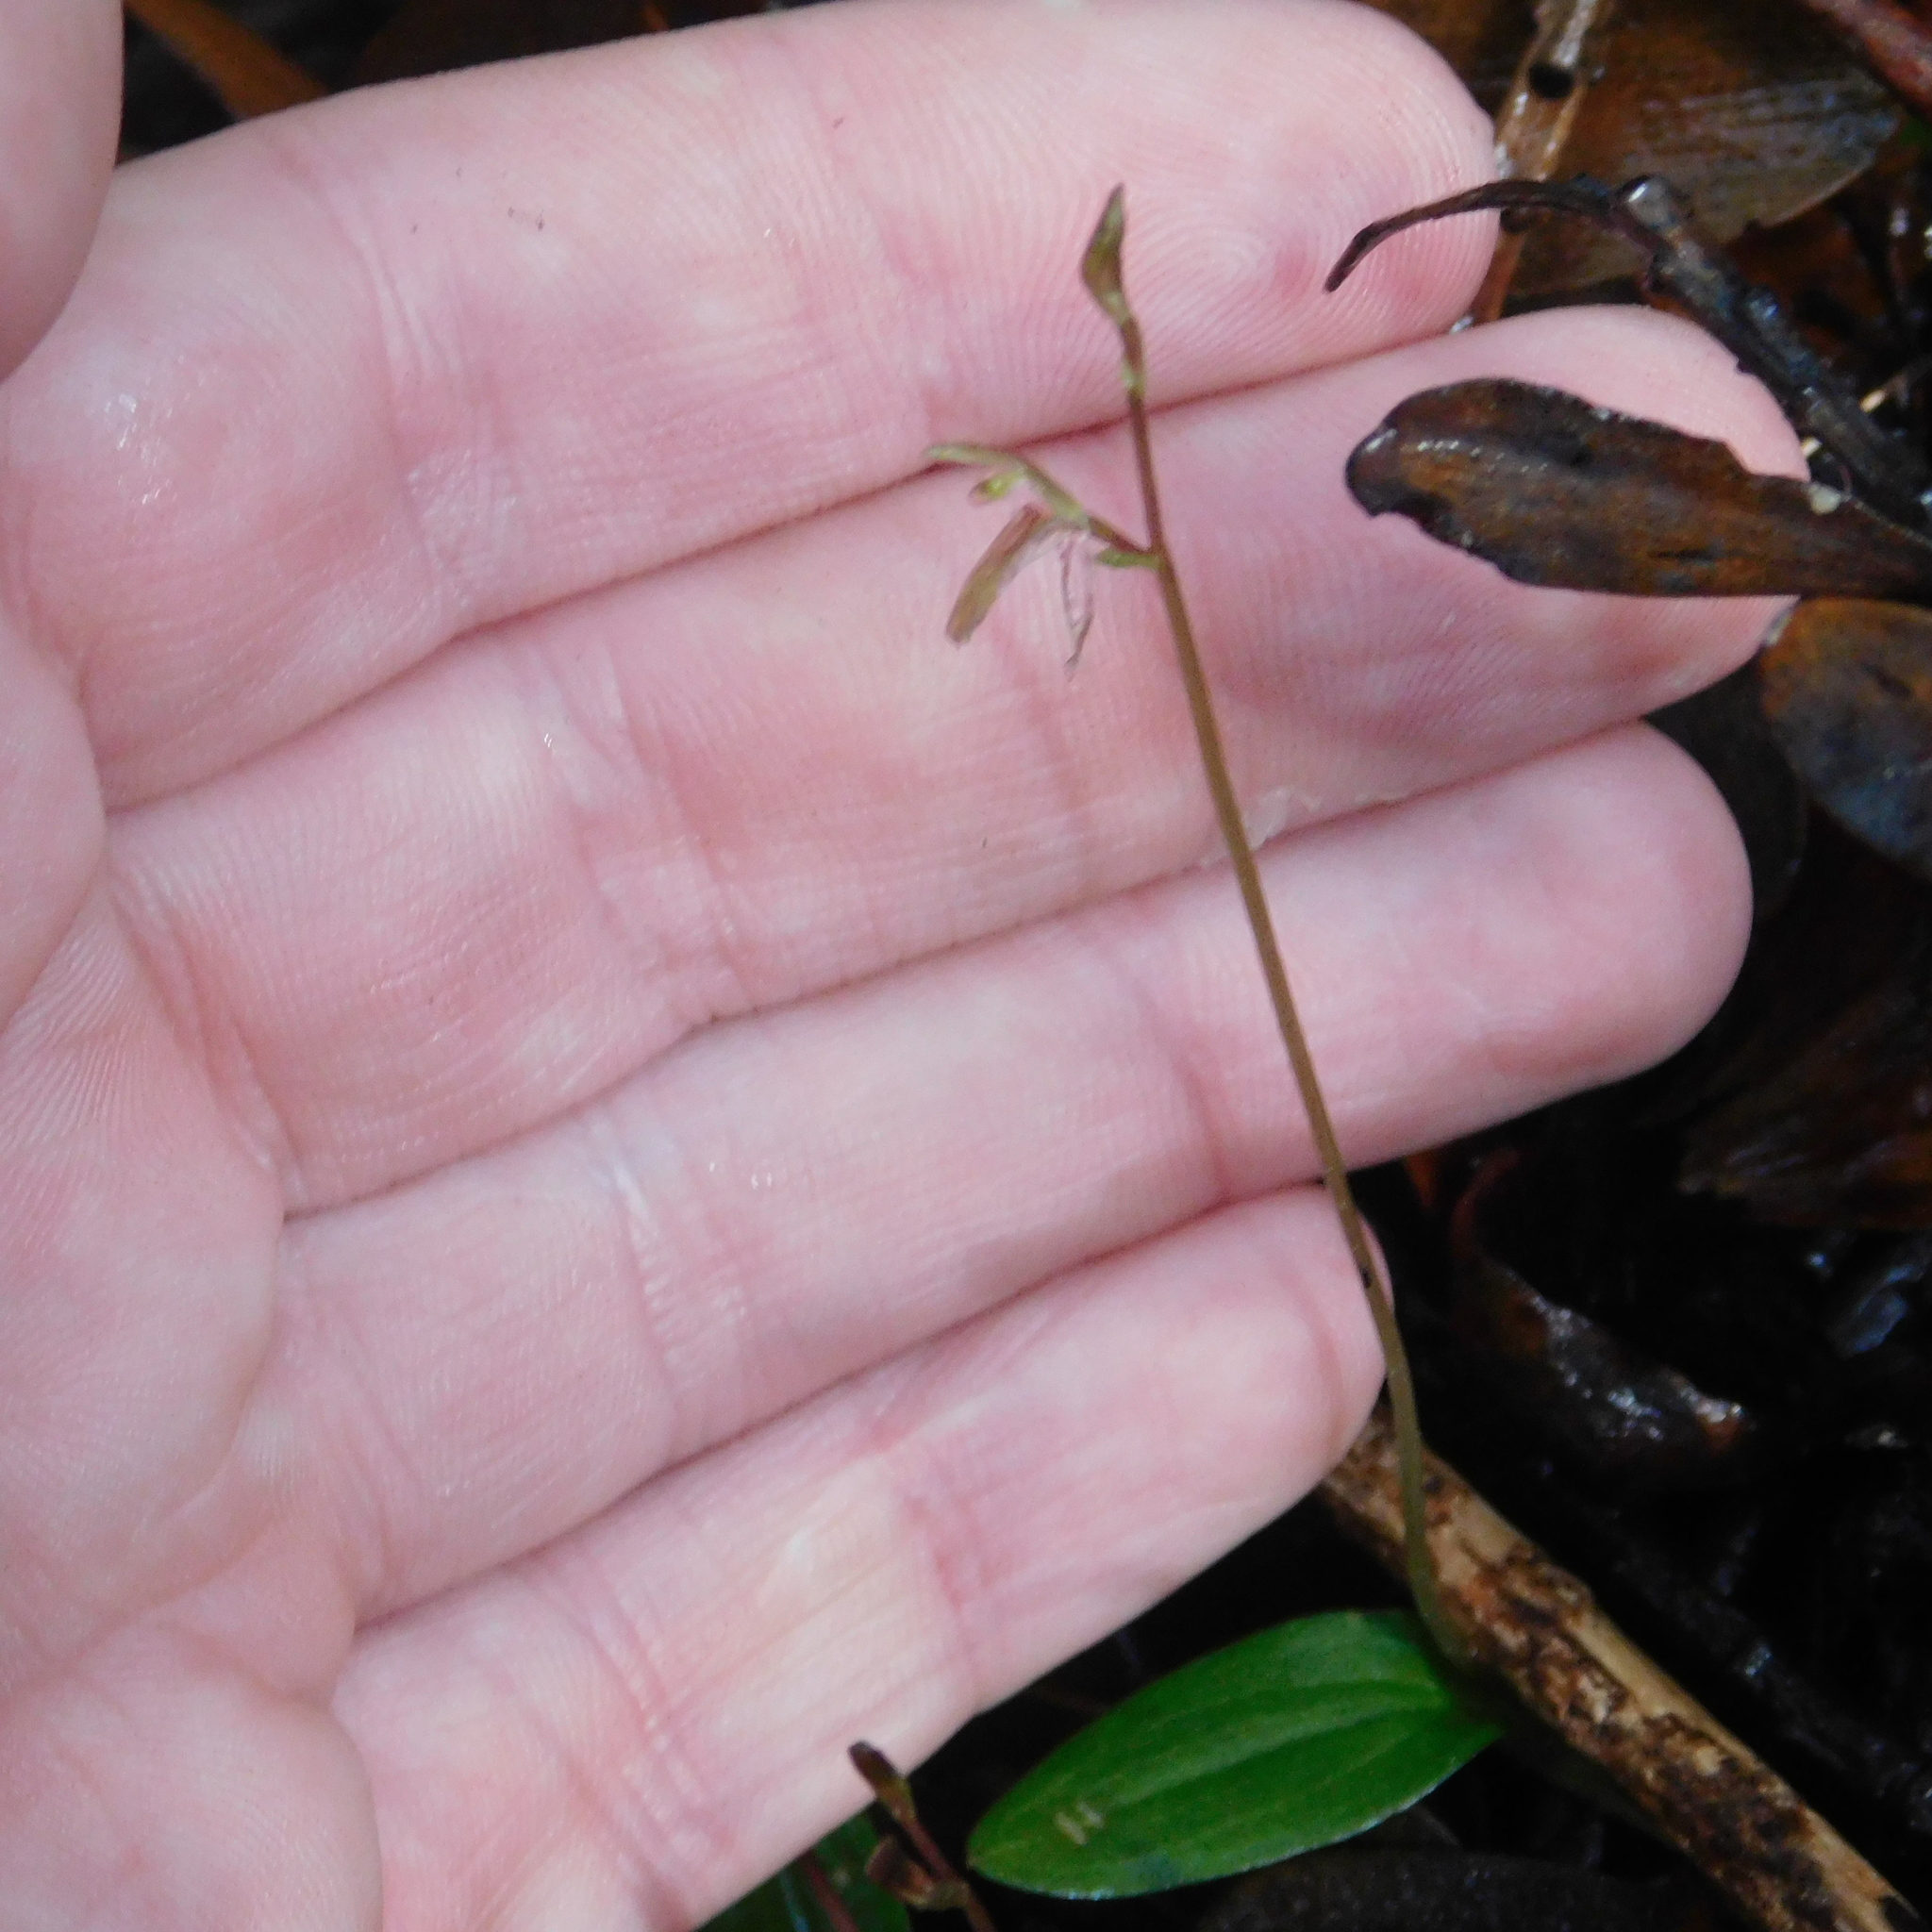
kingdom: Plantae
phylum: Tracheophyta
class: Liliopsida
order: Asparagales
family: Orchidaceae
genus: Cyrtostylis
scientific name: Cyrtostylis oblonga
